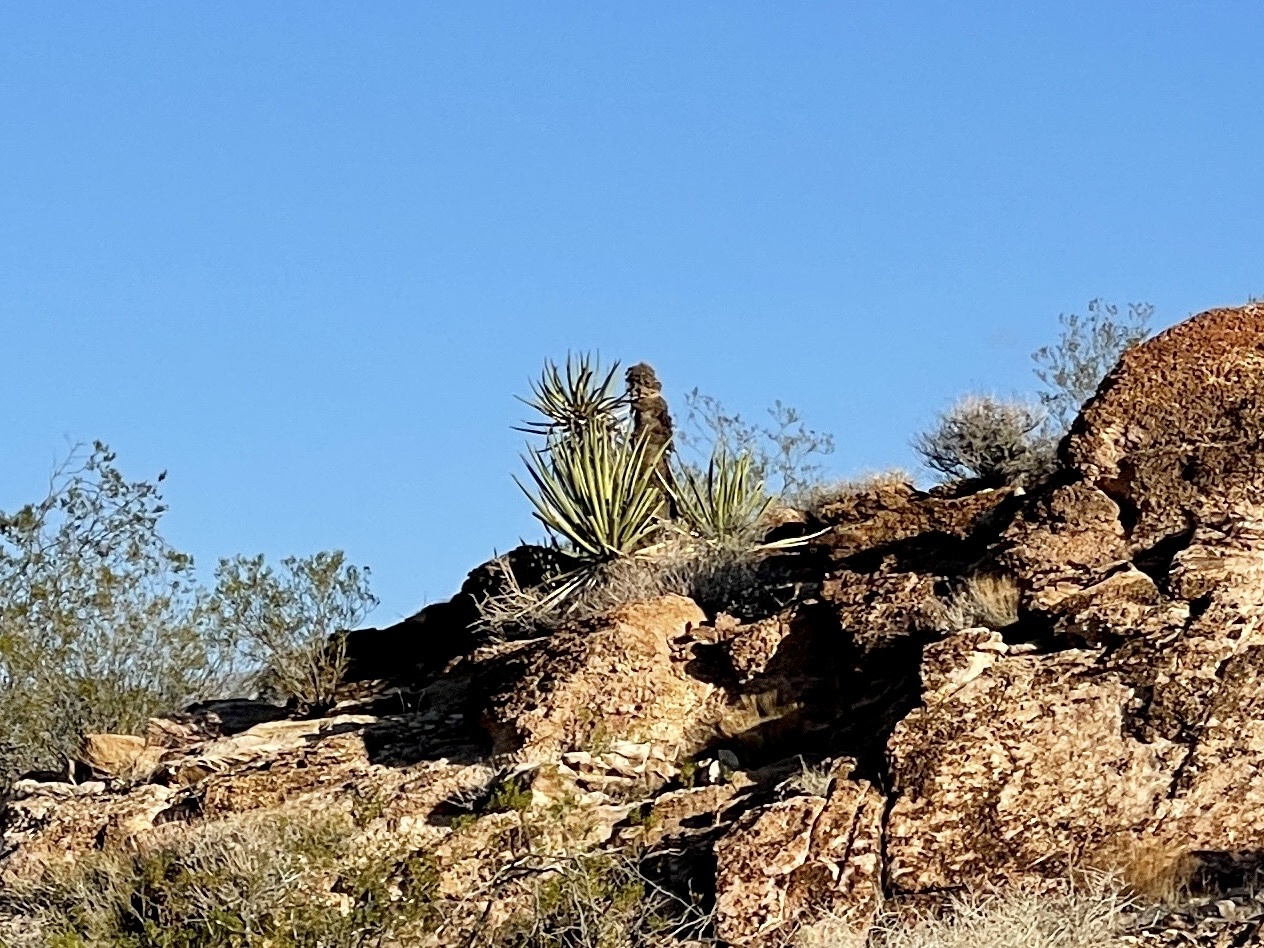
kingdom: Plantae
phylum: Tracheophyta
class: Liliopsida
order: Asparagales
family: Asparagaceae
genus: Yucca
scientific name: Yucca schidigera
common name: Mojave yucca
